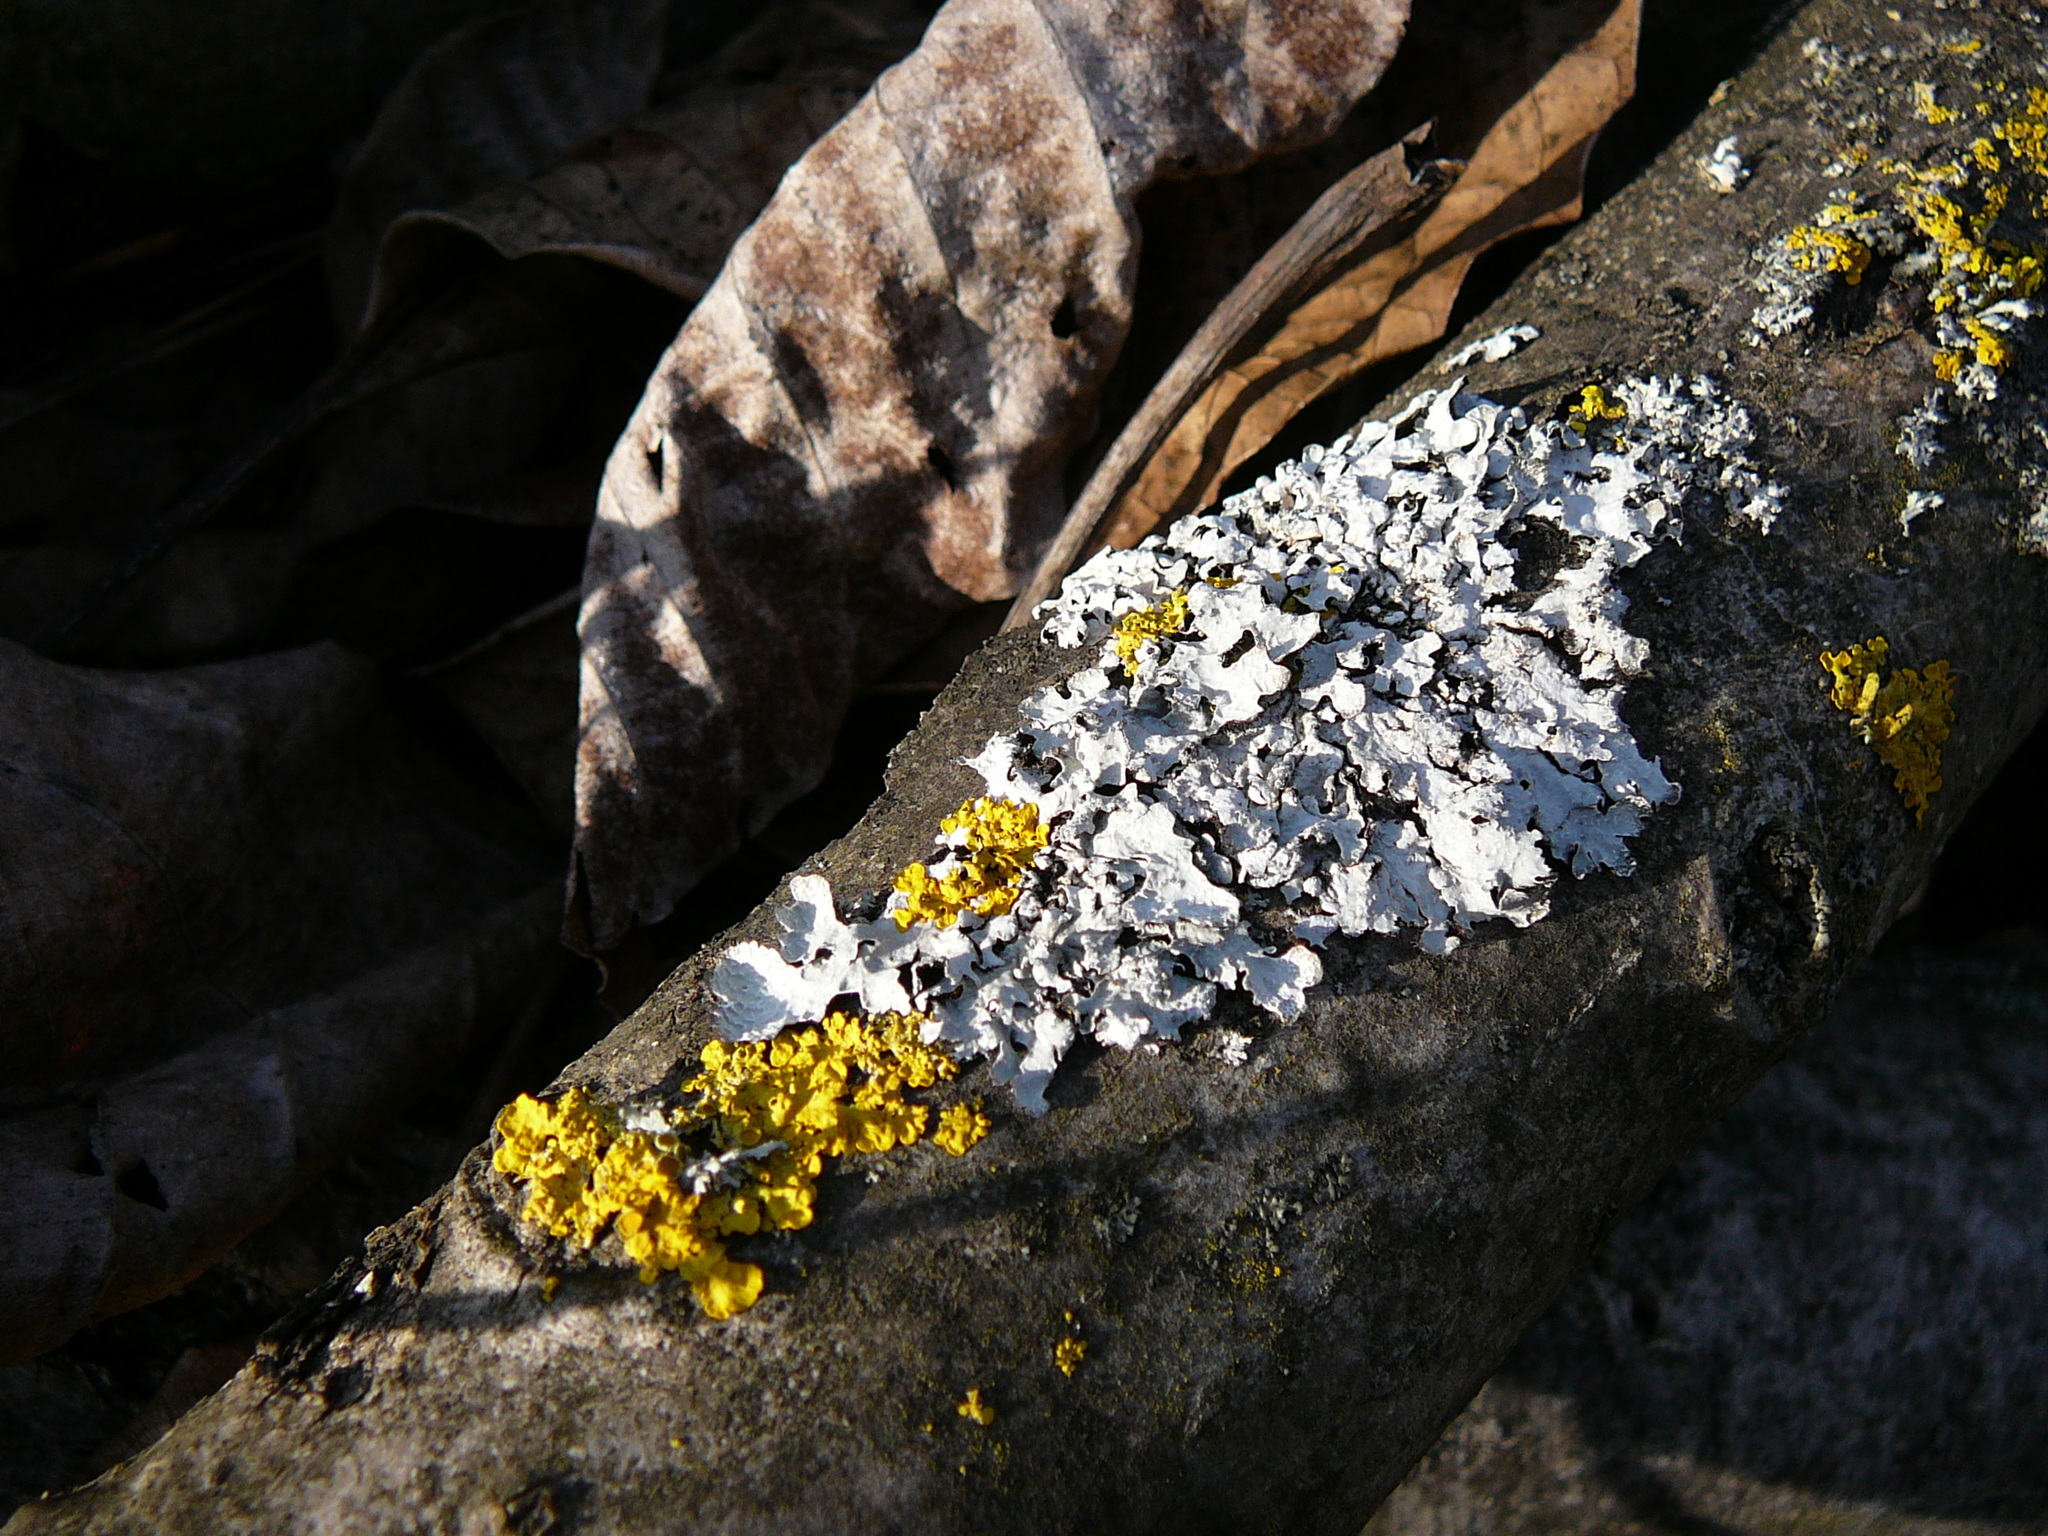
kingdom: Fungi
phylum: Ascomycota
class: Lecanoromycetes
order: Teloschistales
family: Teloschistaceae
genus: Xanthoria
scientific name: Xanthoria parietina
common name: Common orange lichen
